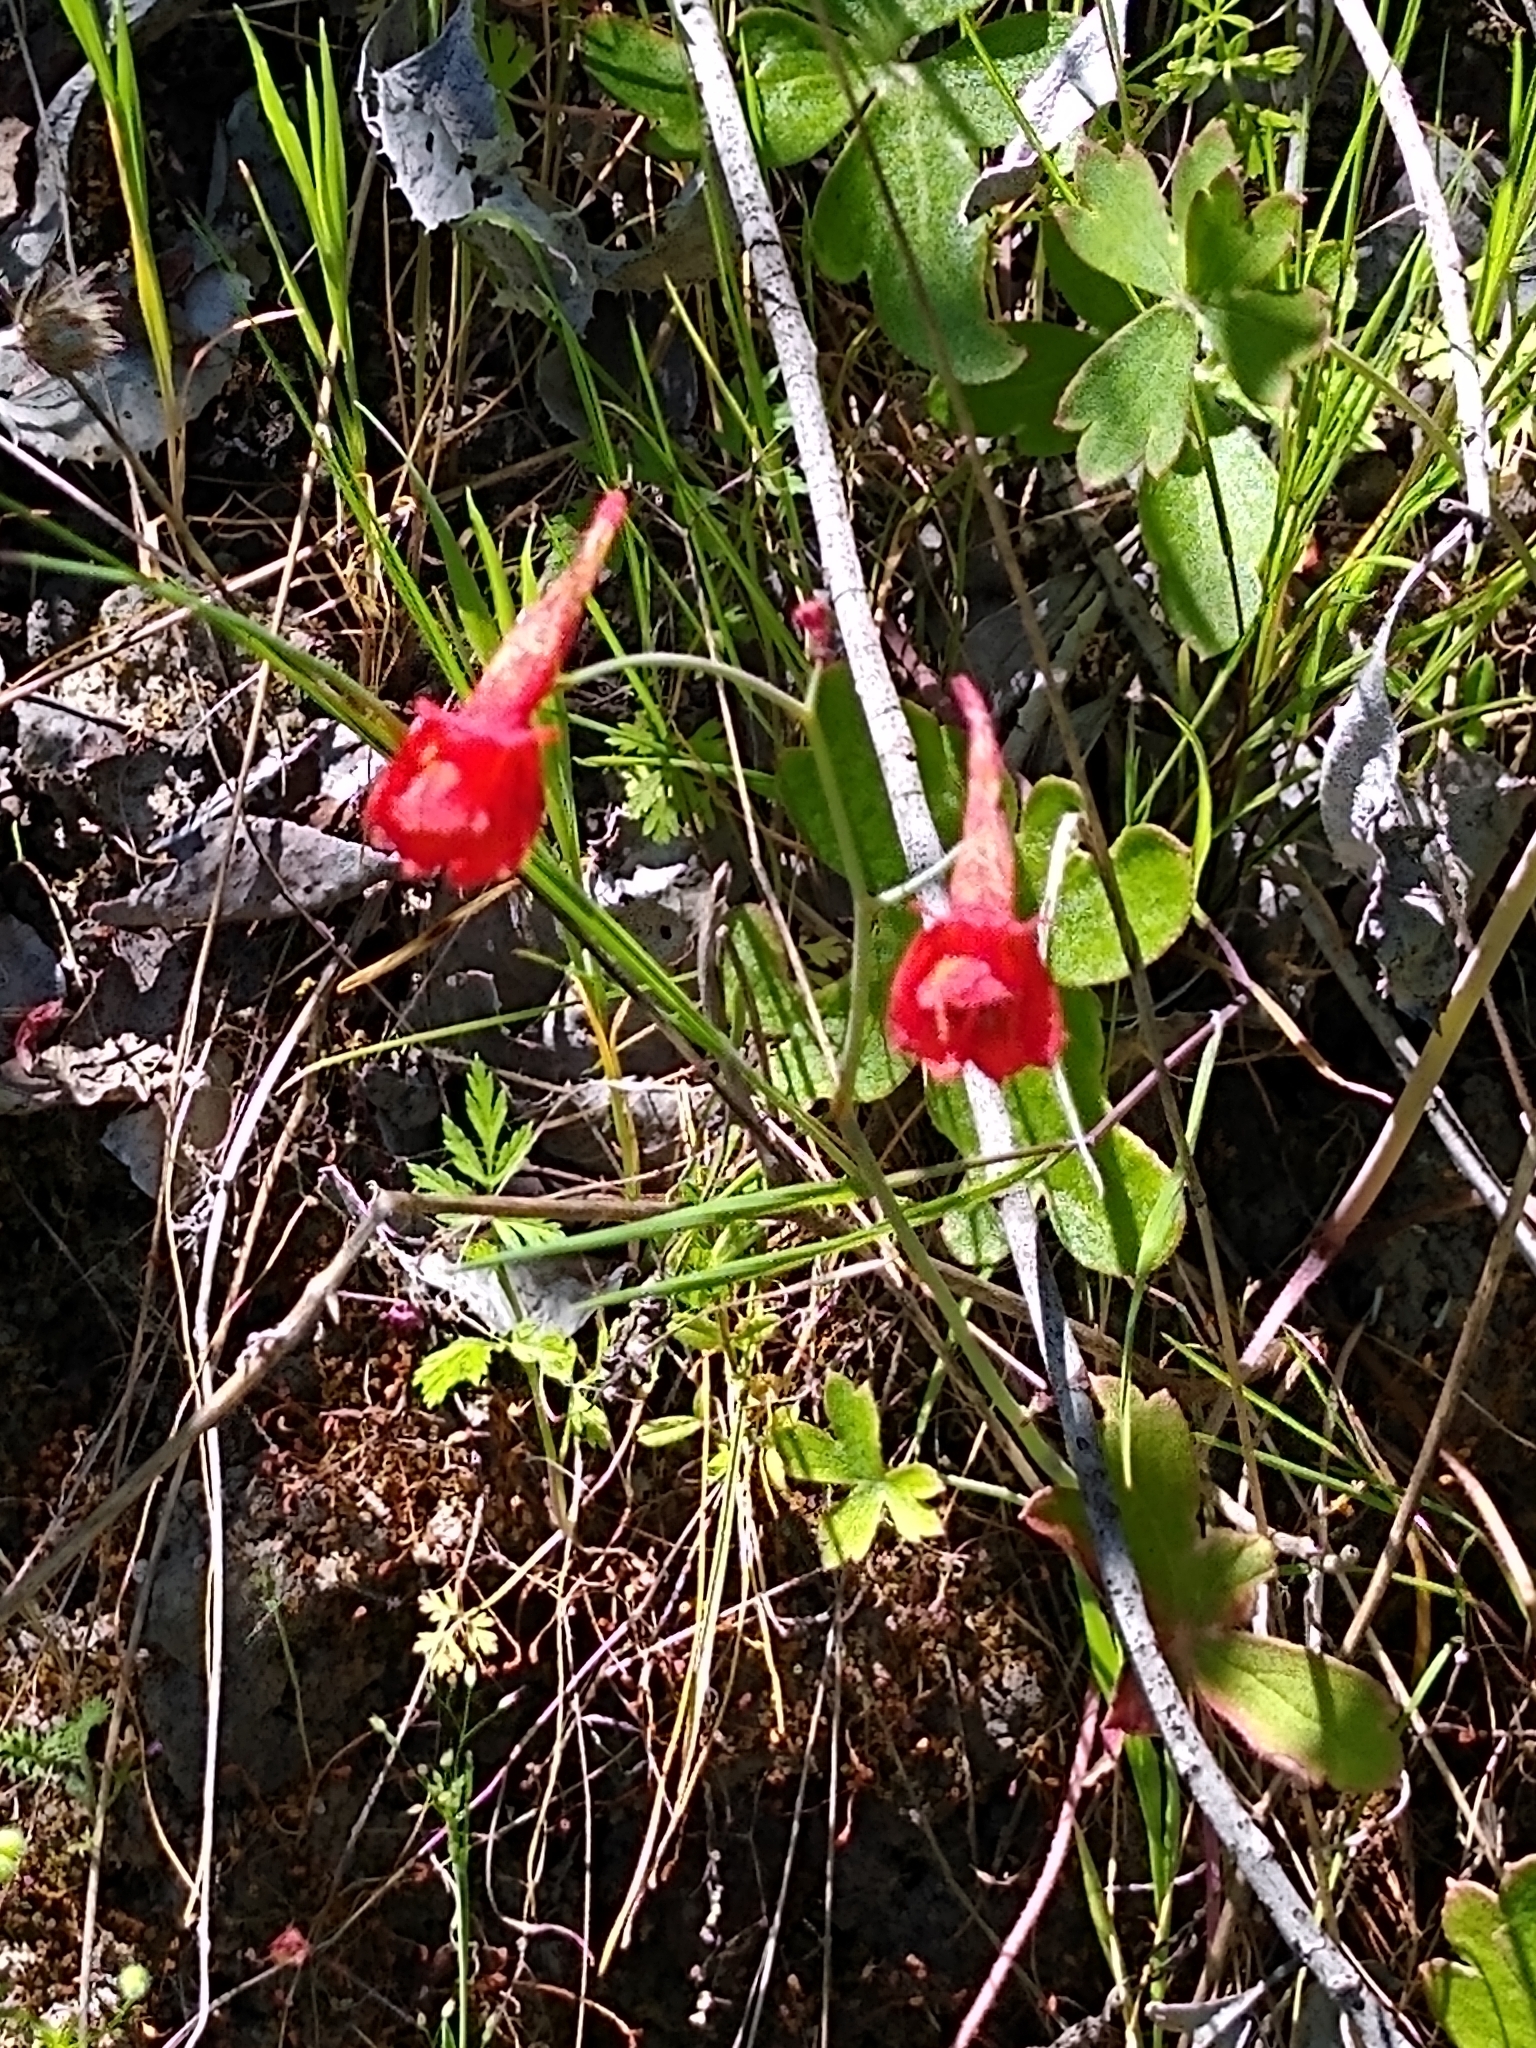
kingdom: Plantae
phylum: Tracheophyta
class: Magnoliopsida
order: Ranunculales
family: Ranunculaceae
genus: Delphinium
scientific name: Delphinium nudicaule
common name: Red larkspur
